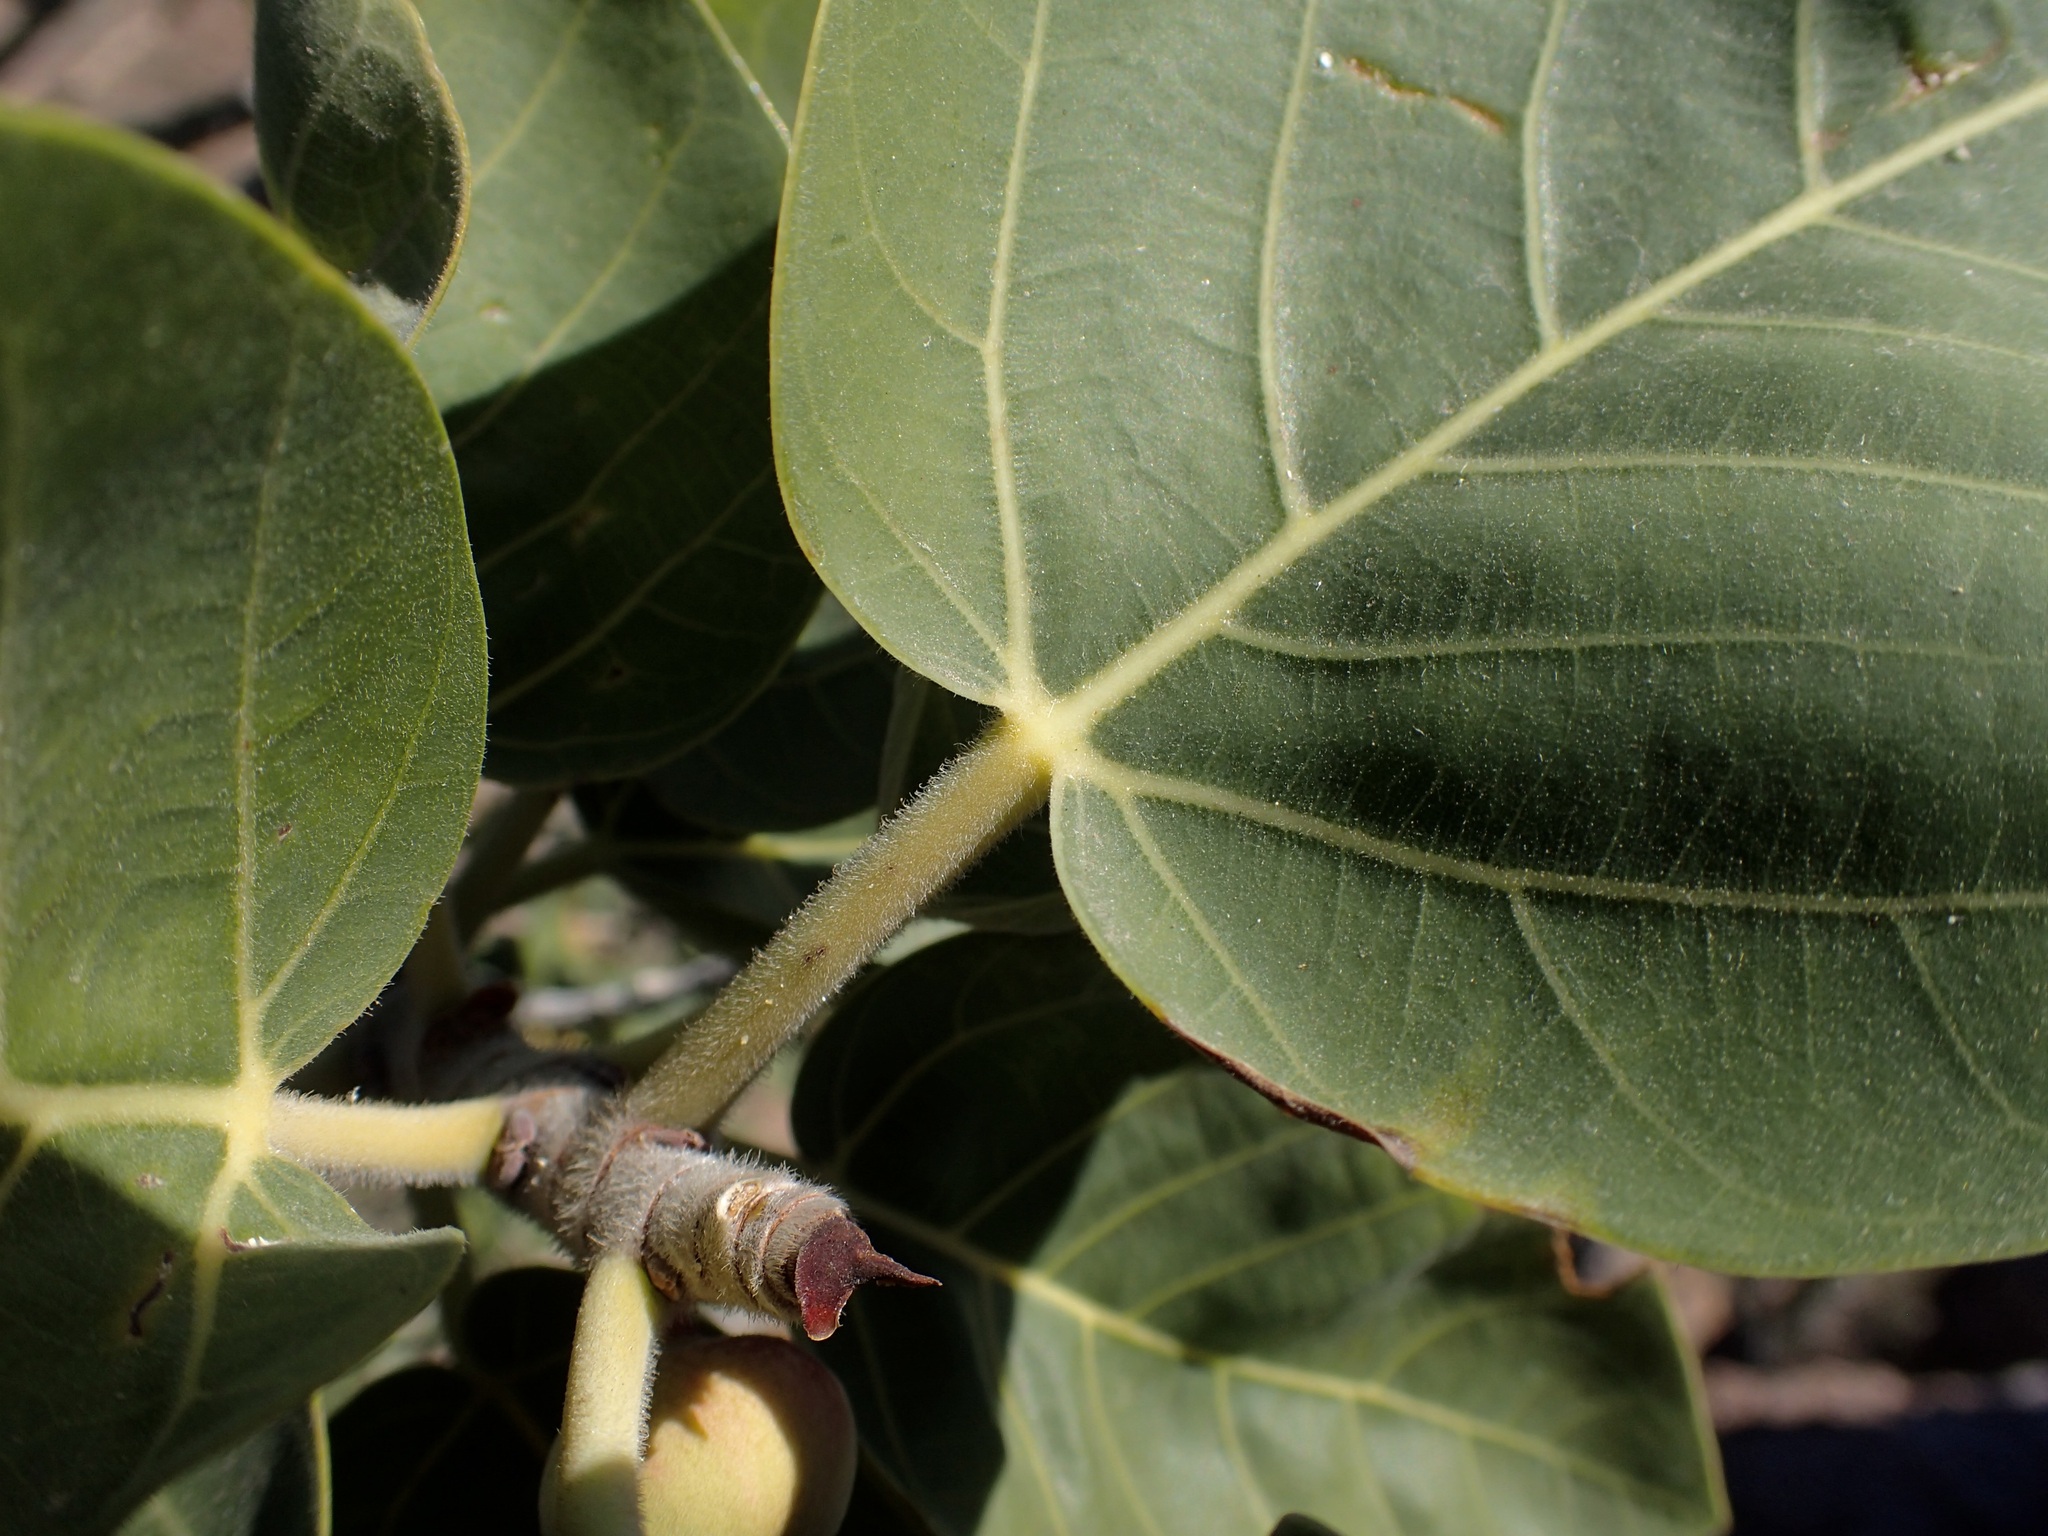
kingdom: Plantae
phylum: Tracheophyta
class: Magnoliopsida
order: Rosales
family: Moraceae
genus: Ficus
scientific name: Ficus petiolaris
